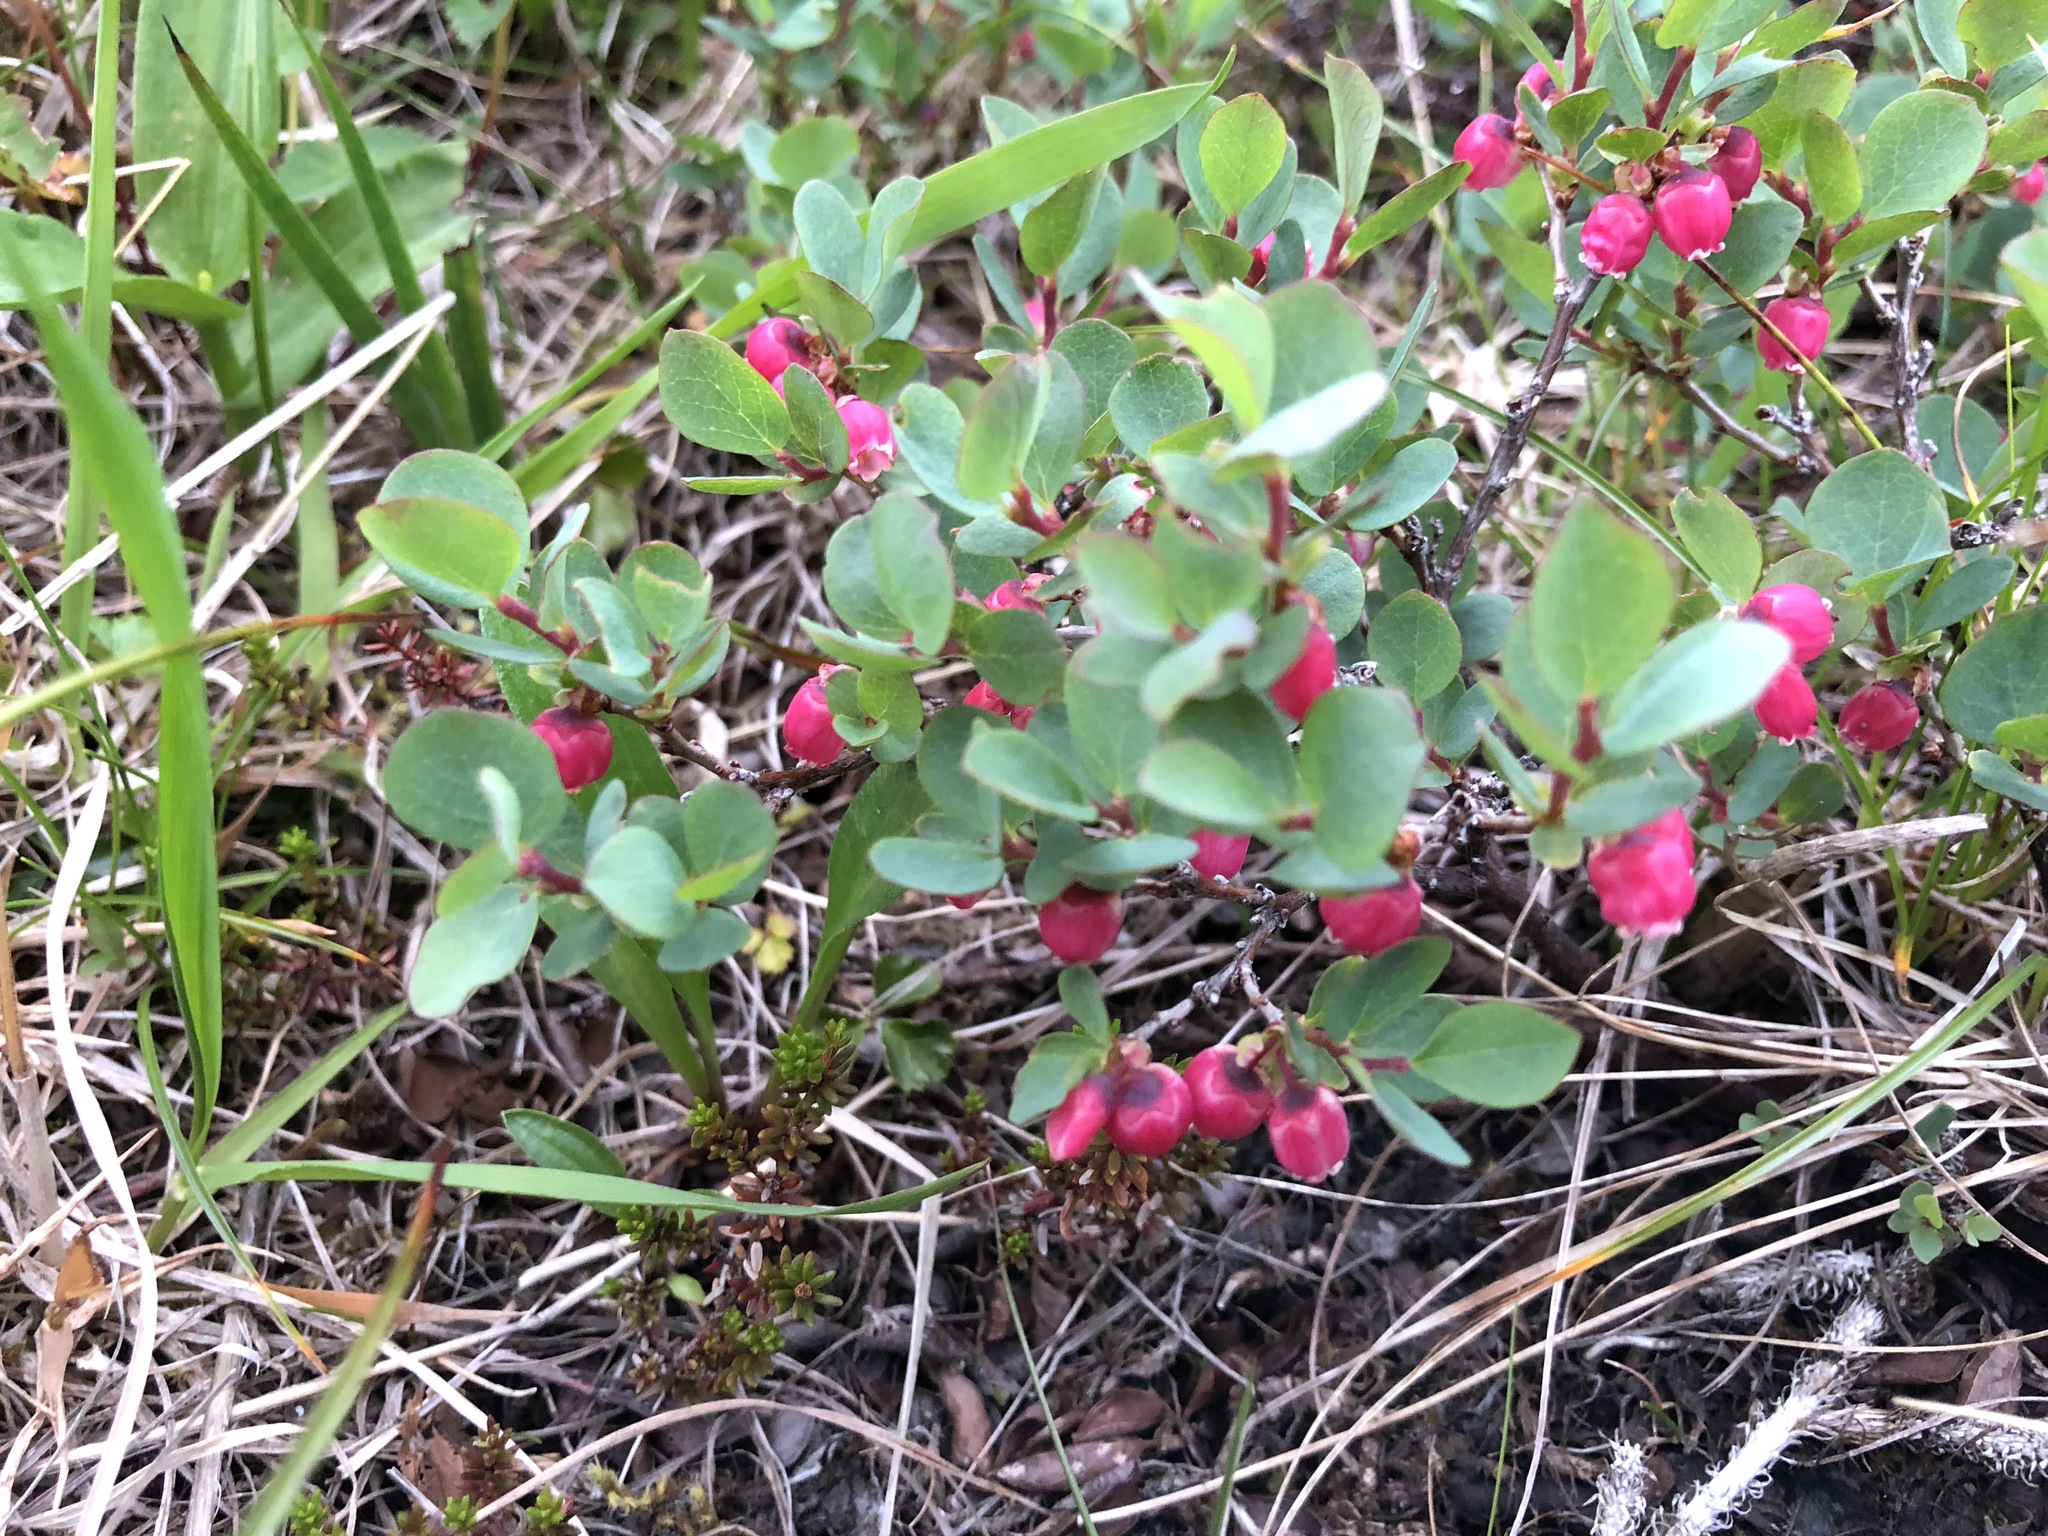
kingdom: Plantae
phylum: Tracheophyta
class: Magnoliopsida
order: Ericales
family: Ericaceae
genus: Vaccinium
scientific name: Vaccinium uliginosum
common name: Bog bilberry
